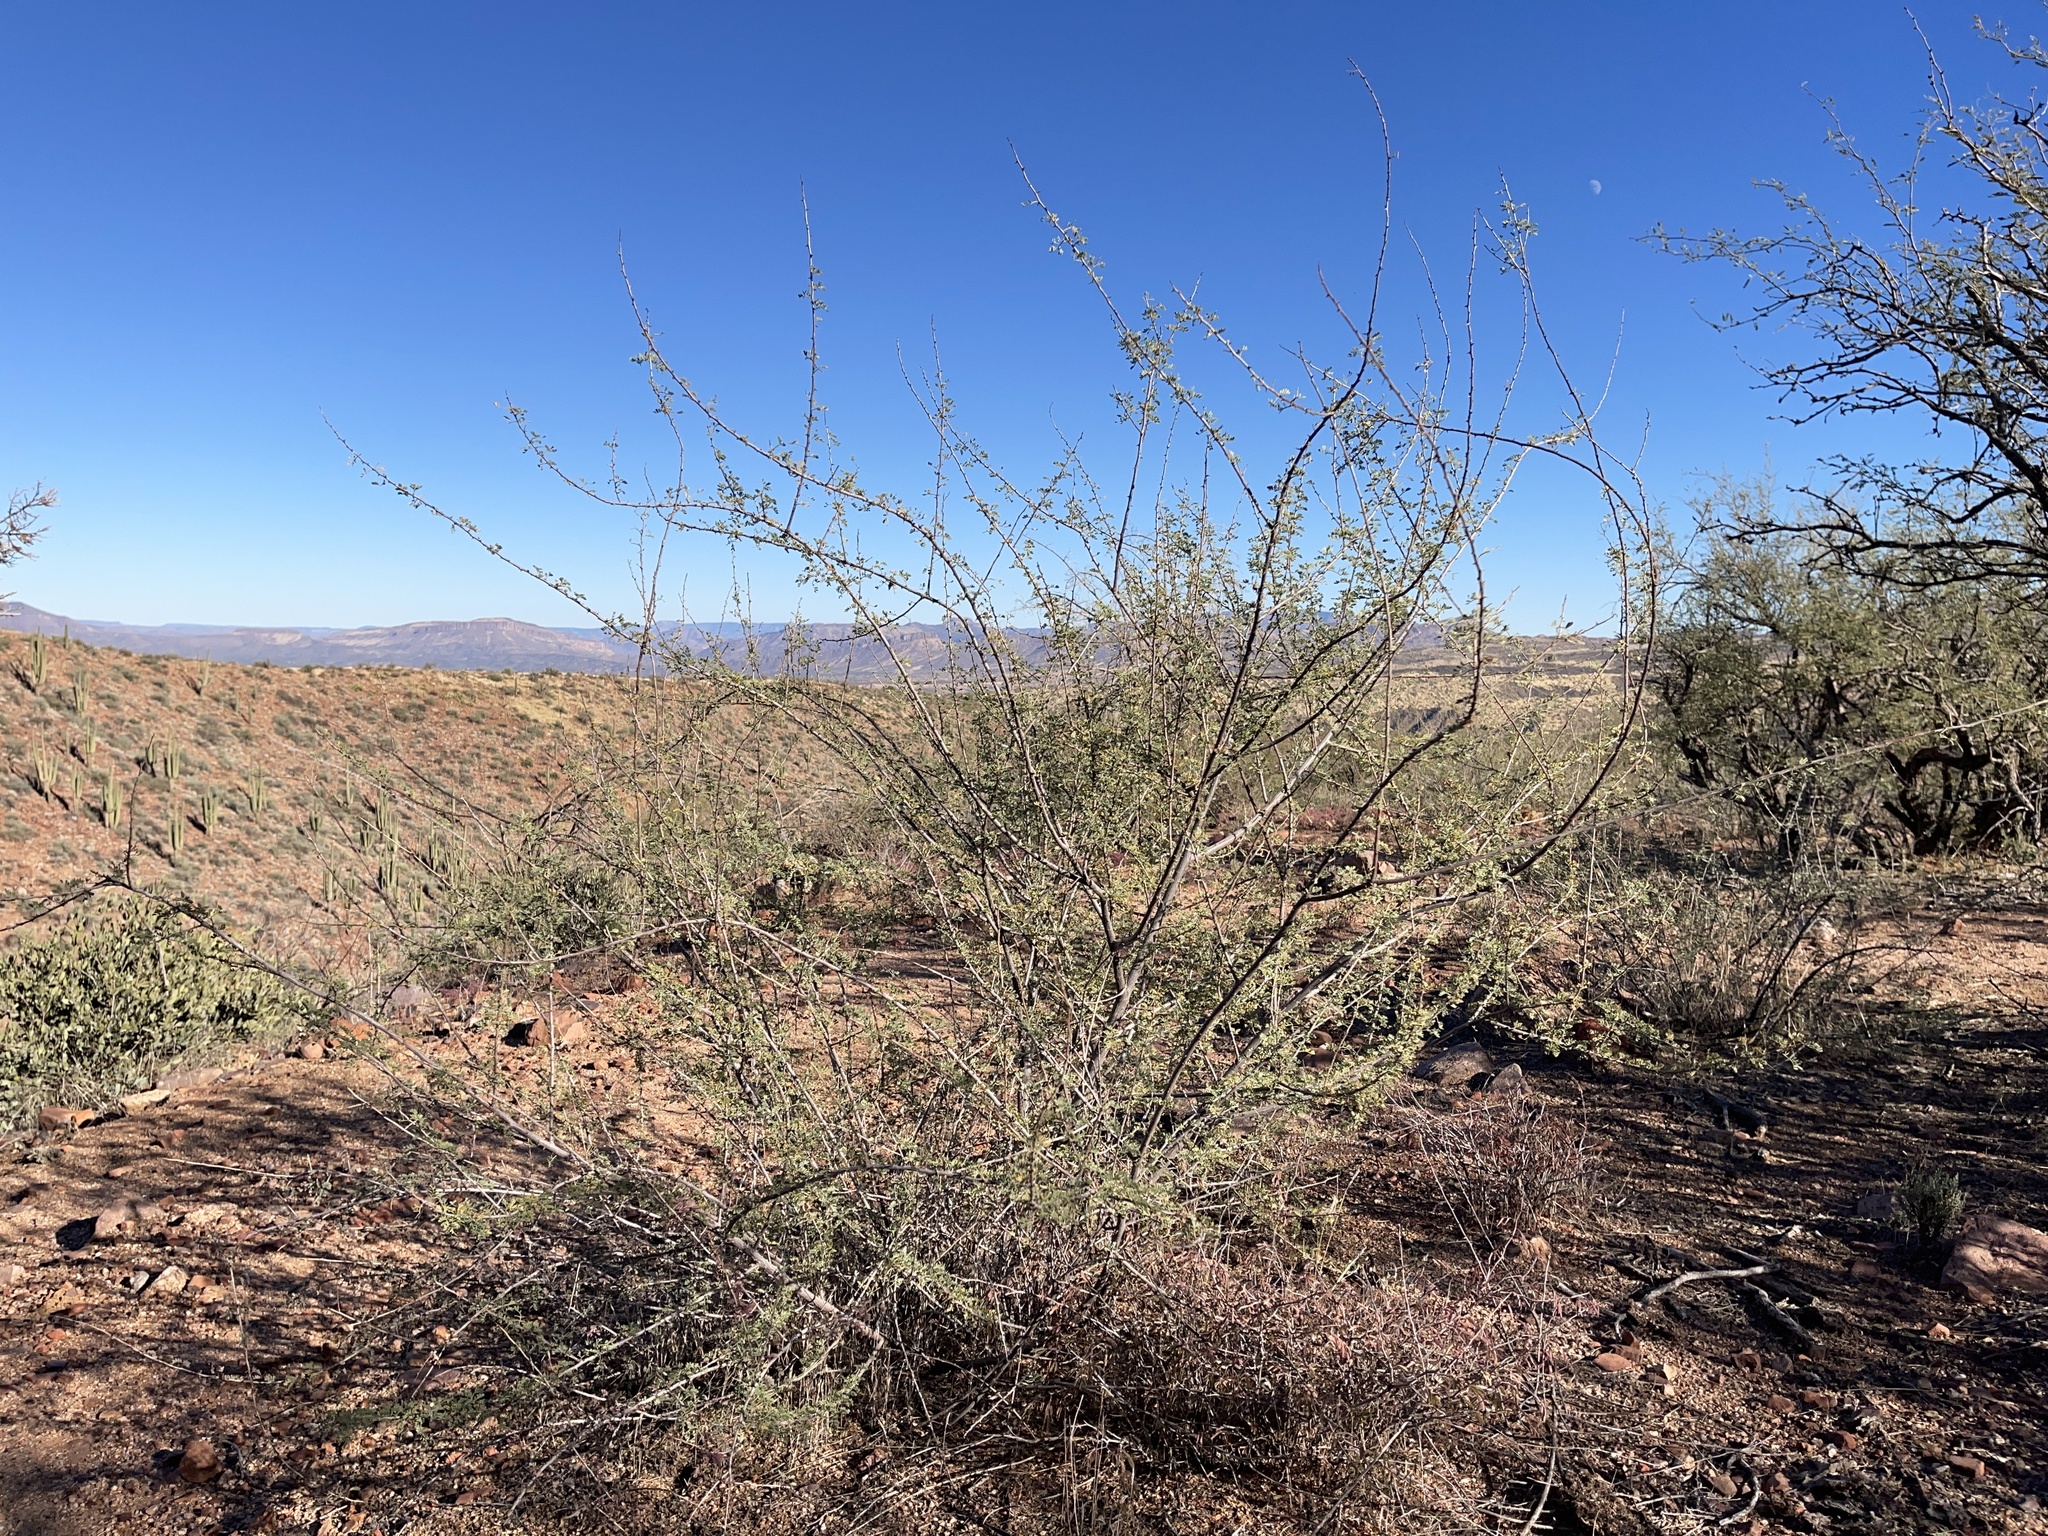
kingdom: Plantae
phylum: Tracheophyta
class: Magnoliopsida
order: Fabales
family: Fabaceae
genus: Senegalia
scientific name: Senegalia greggii
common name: Texas-mimosa
